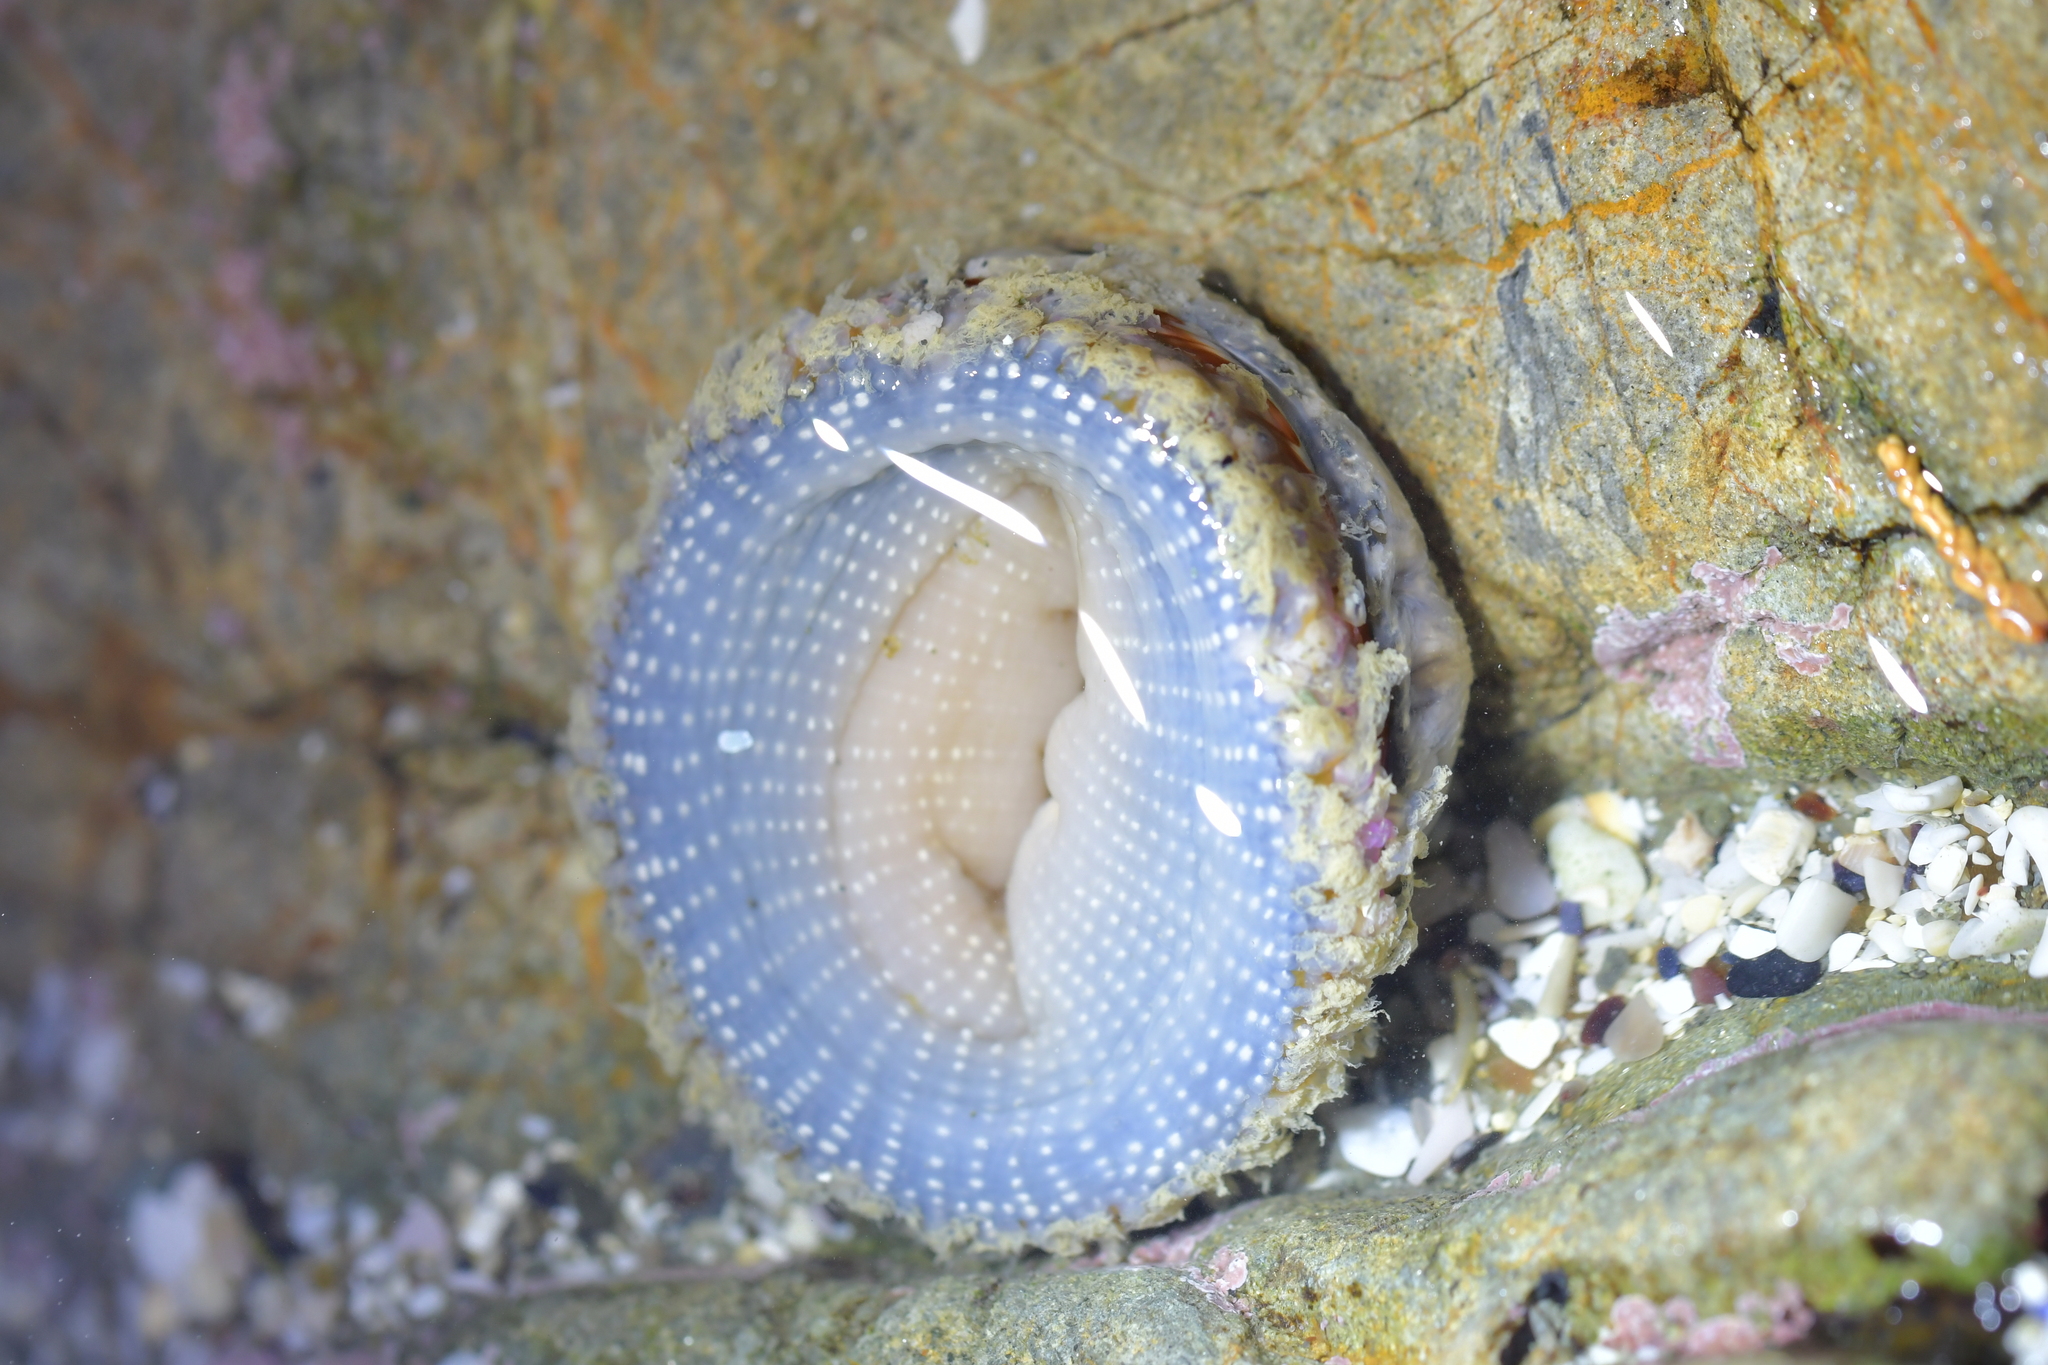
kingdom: Animalia
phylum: Cnidaria
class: Anthozoa
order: Actiniaria
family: Actiniidae
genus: Oulactis
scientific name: Oulactis muscosa
